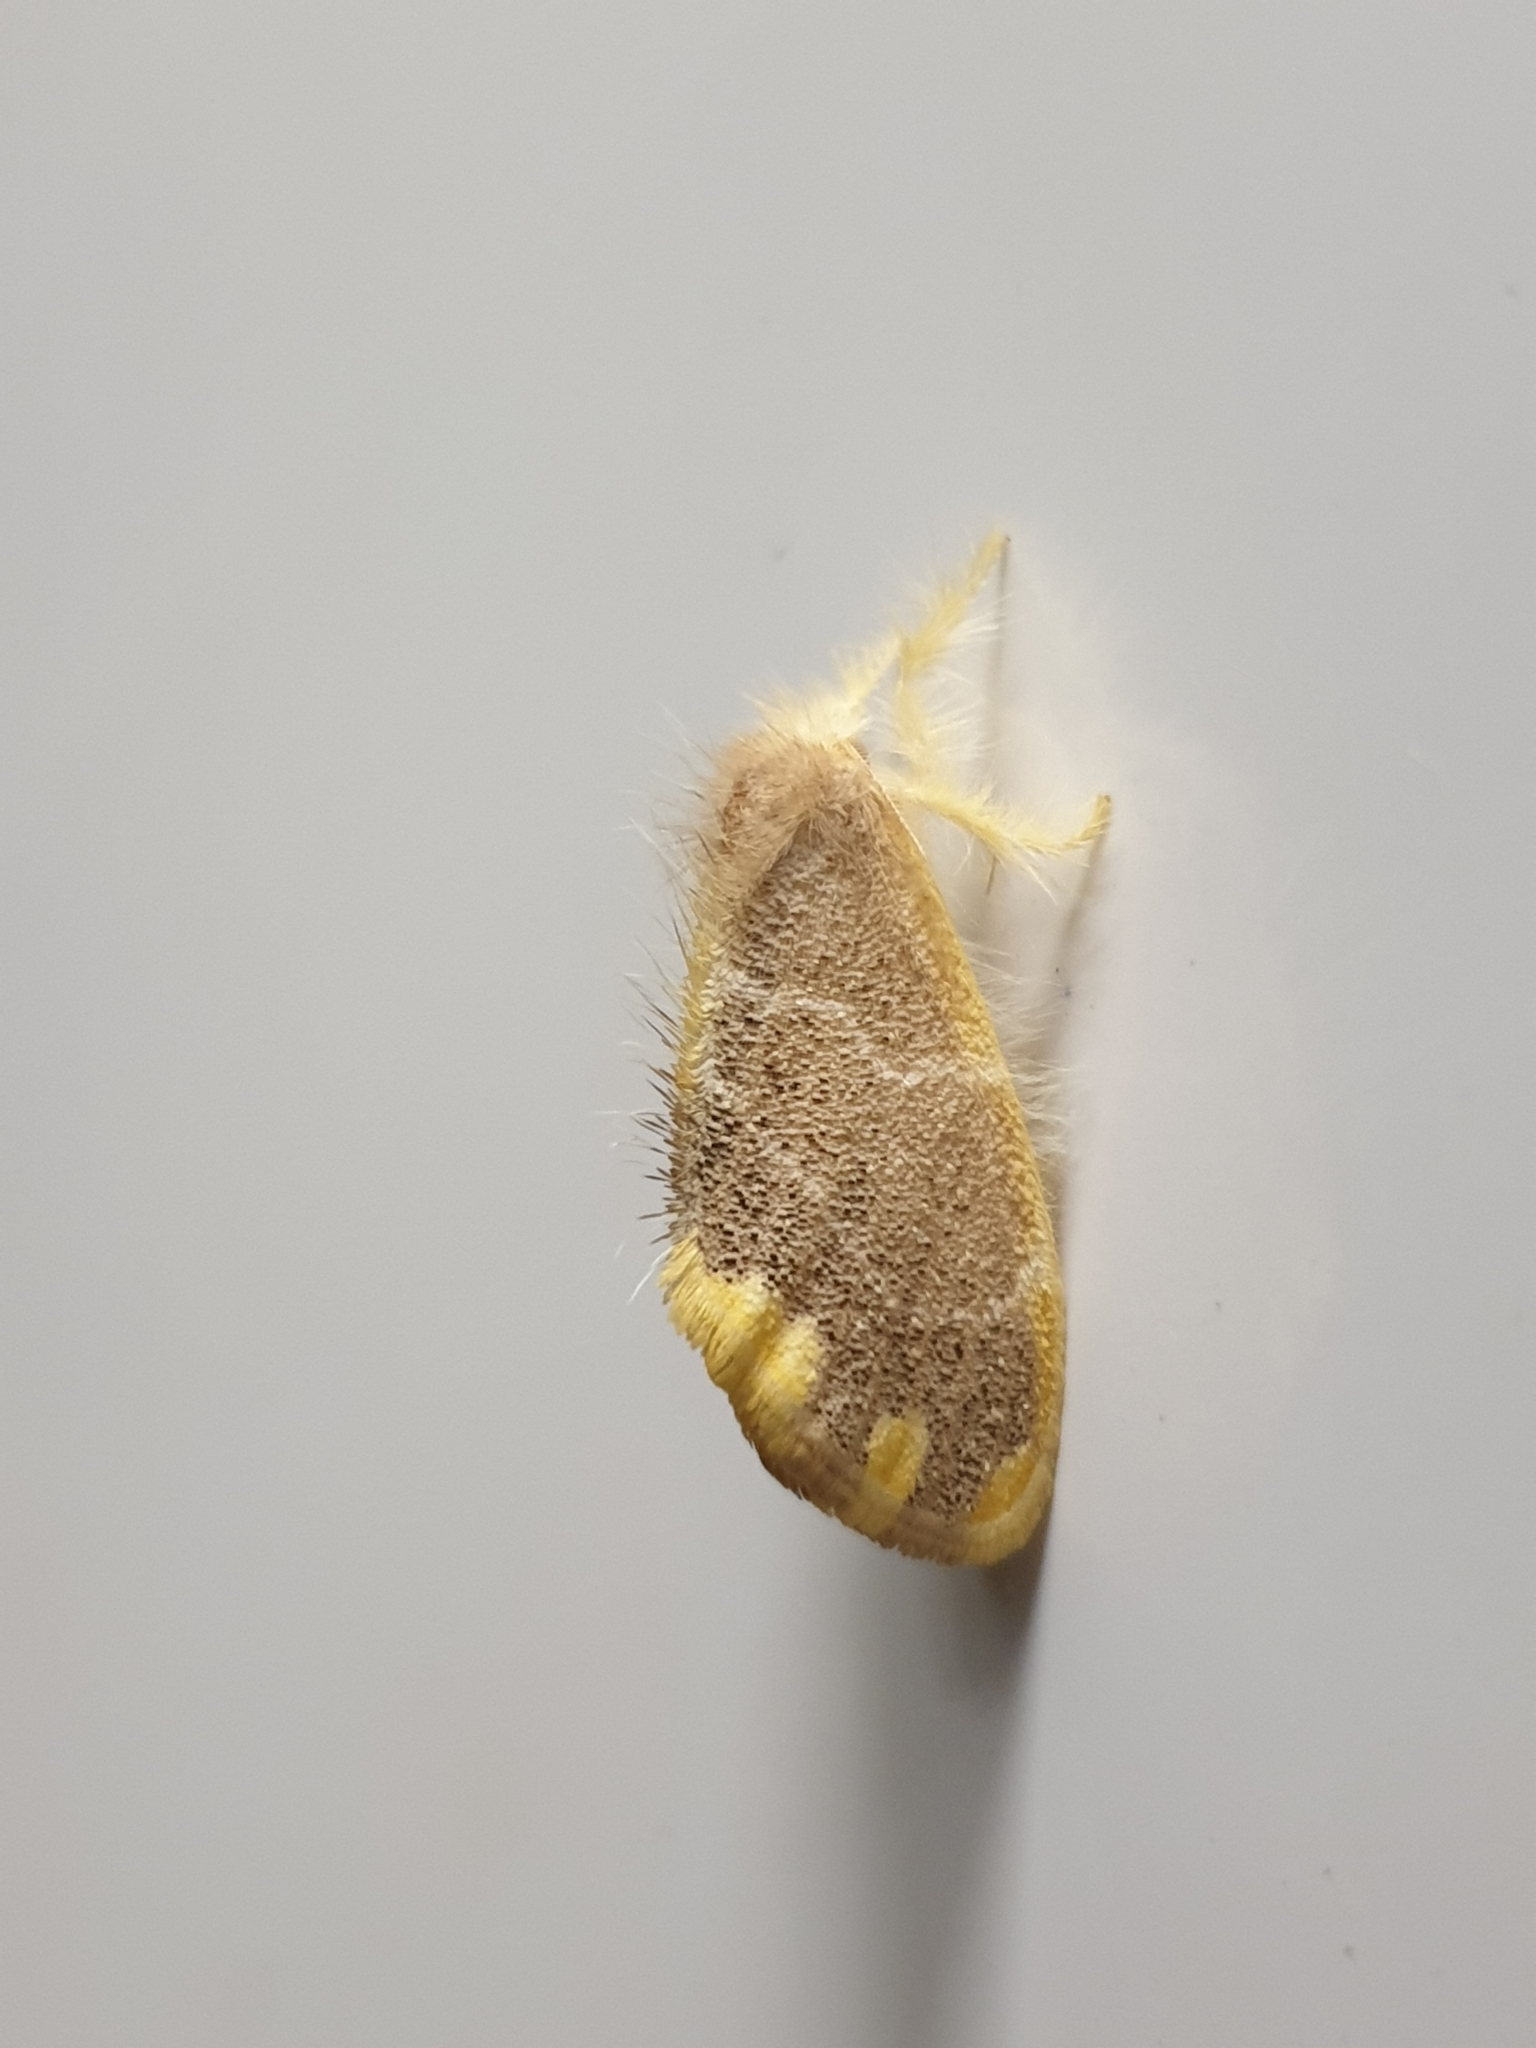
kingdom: Animalia
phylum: Arthropoda
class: Insecta
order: Lepidoptera
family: Erebidae
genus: Orvasca
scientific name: Orvasca subnotata
